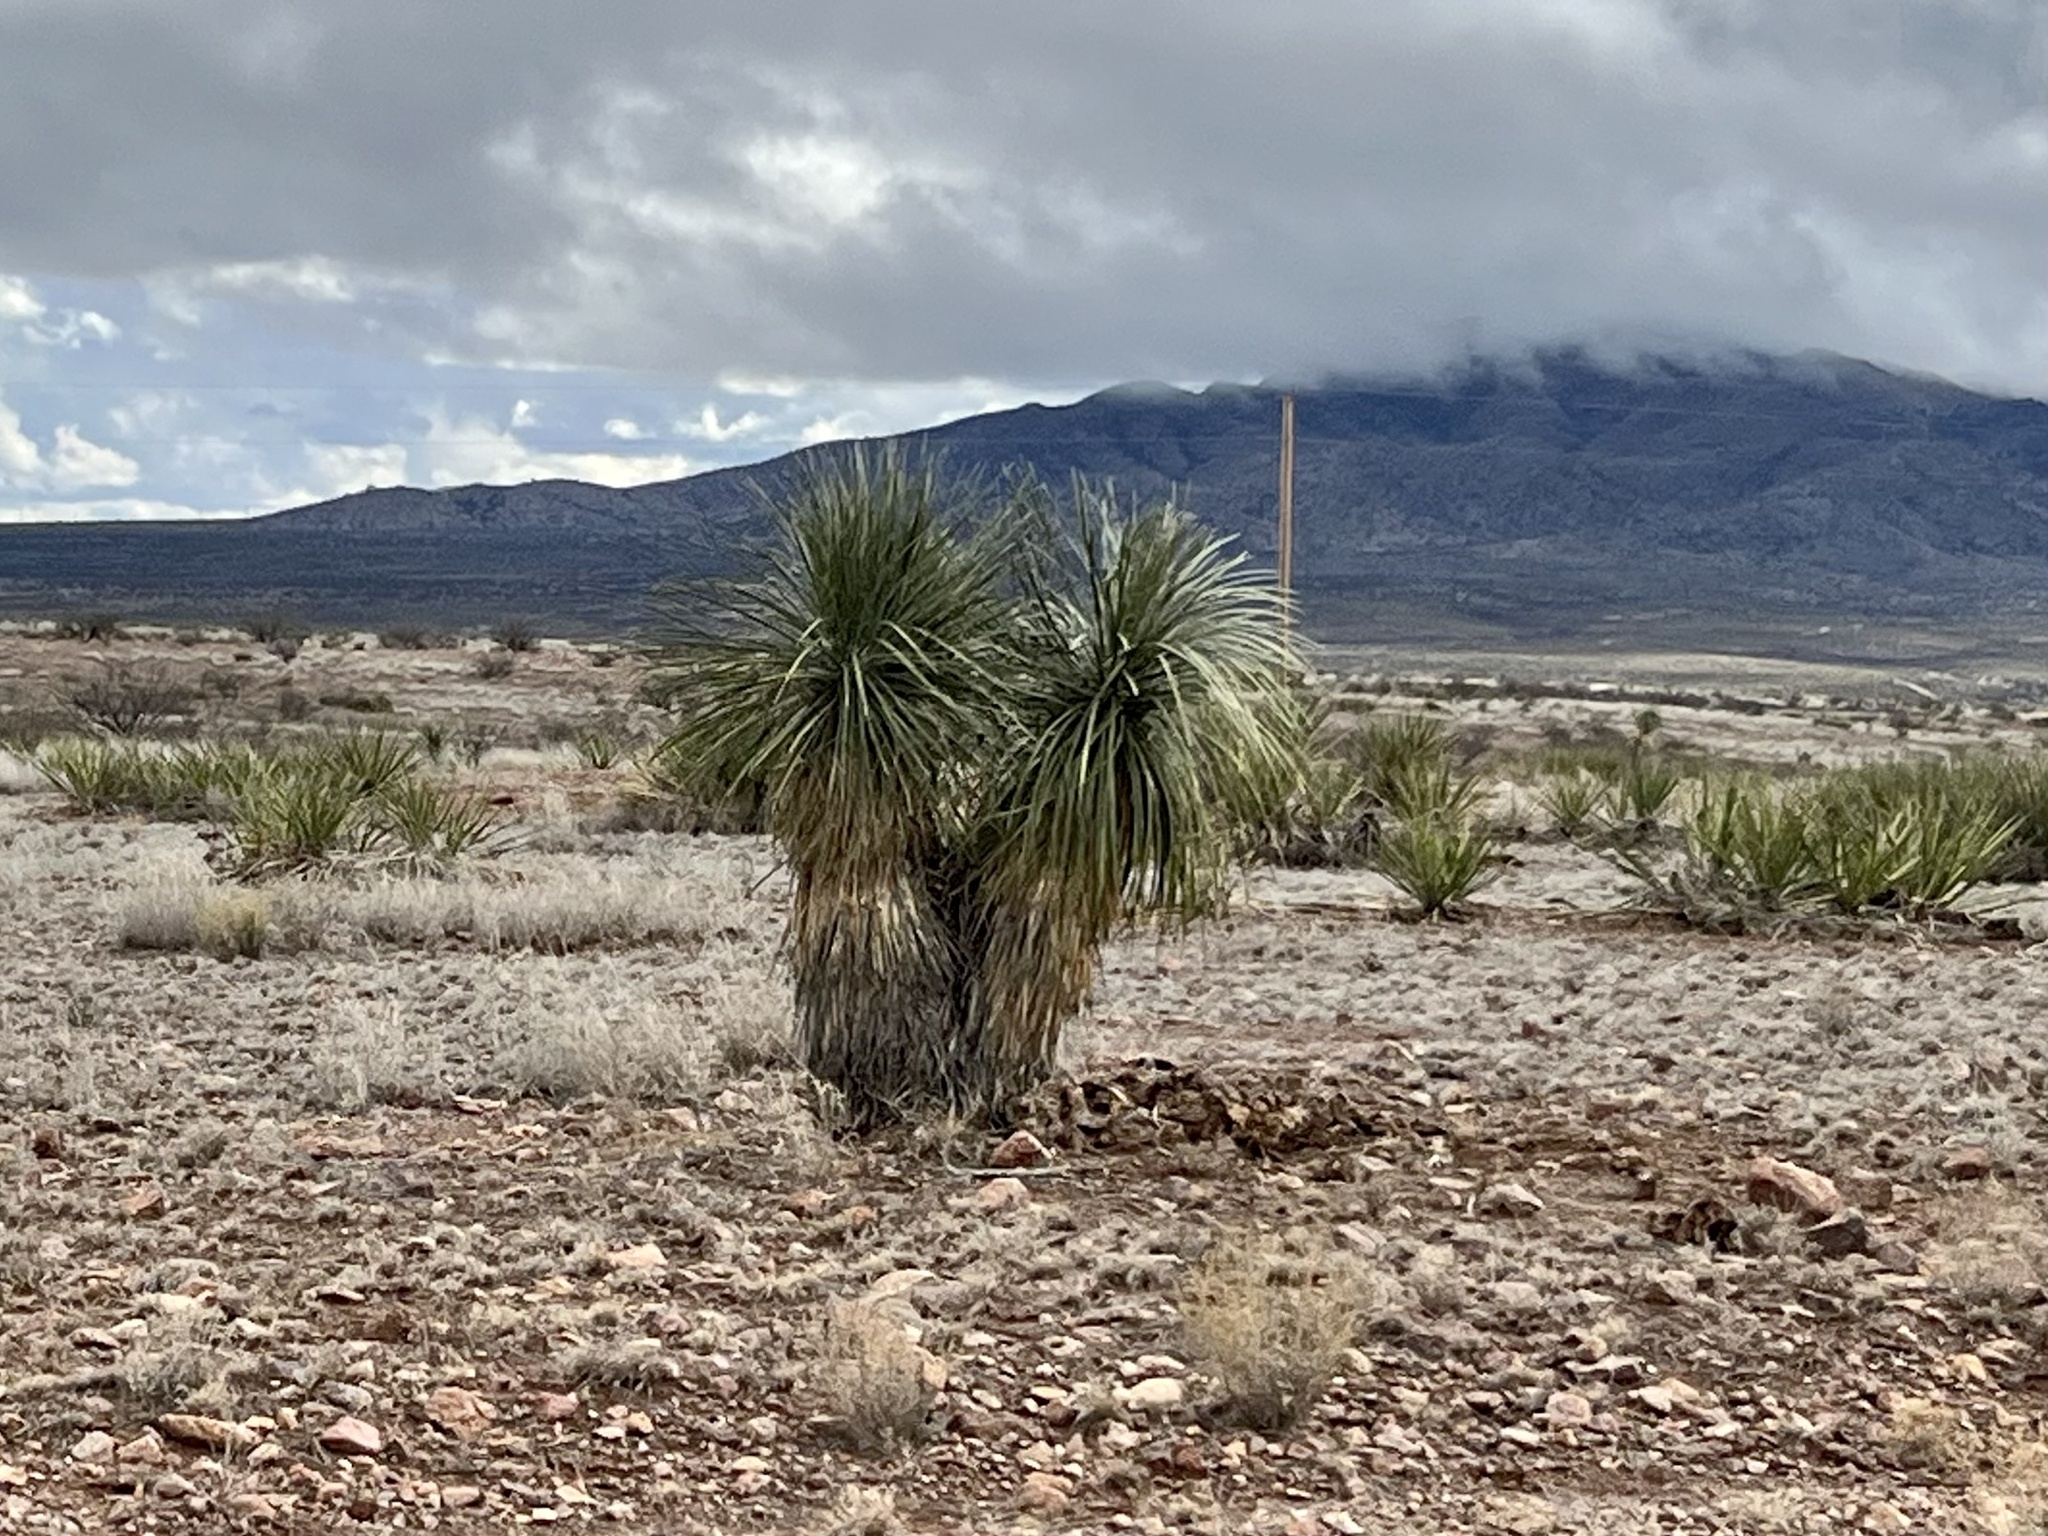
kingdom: Plantae
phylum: Tracheophyta
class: Liliopsida
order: Asparagales
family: Asparagaceae
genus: Yucca
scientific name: Yucca elata
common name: Palmella
